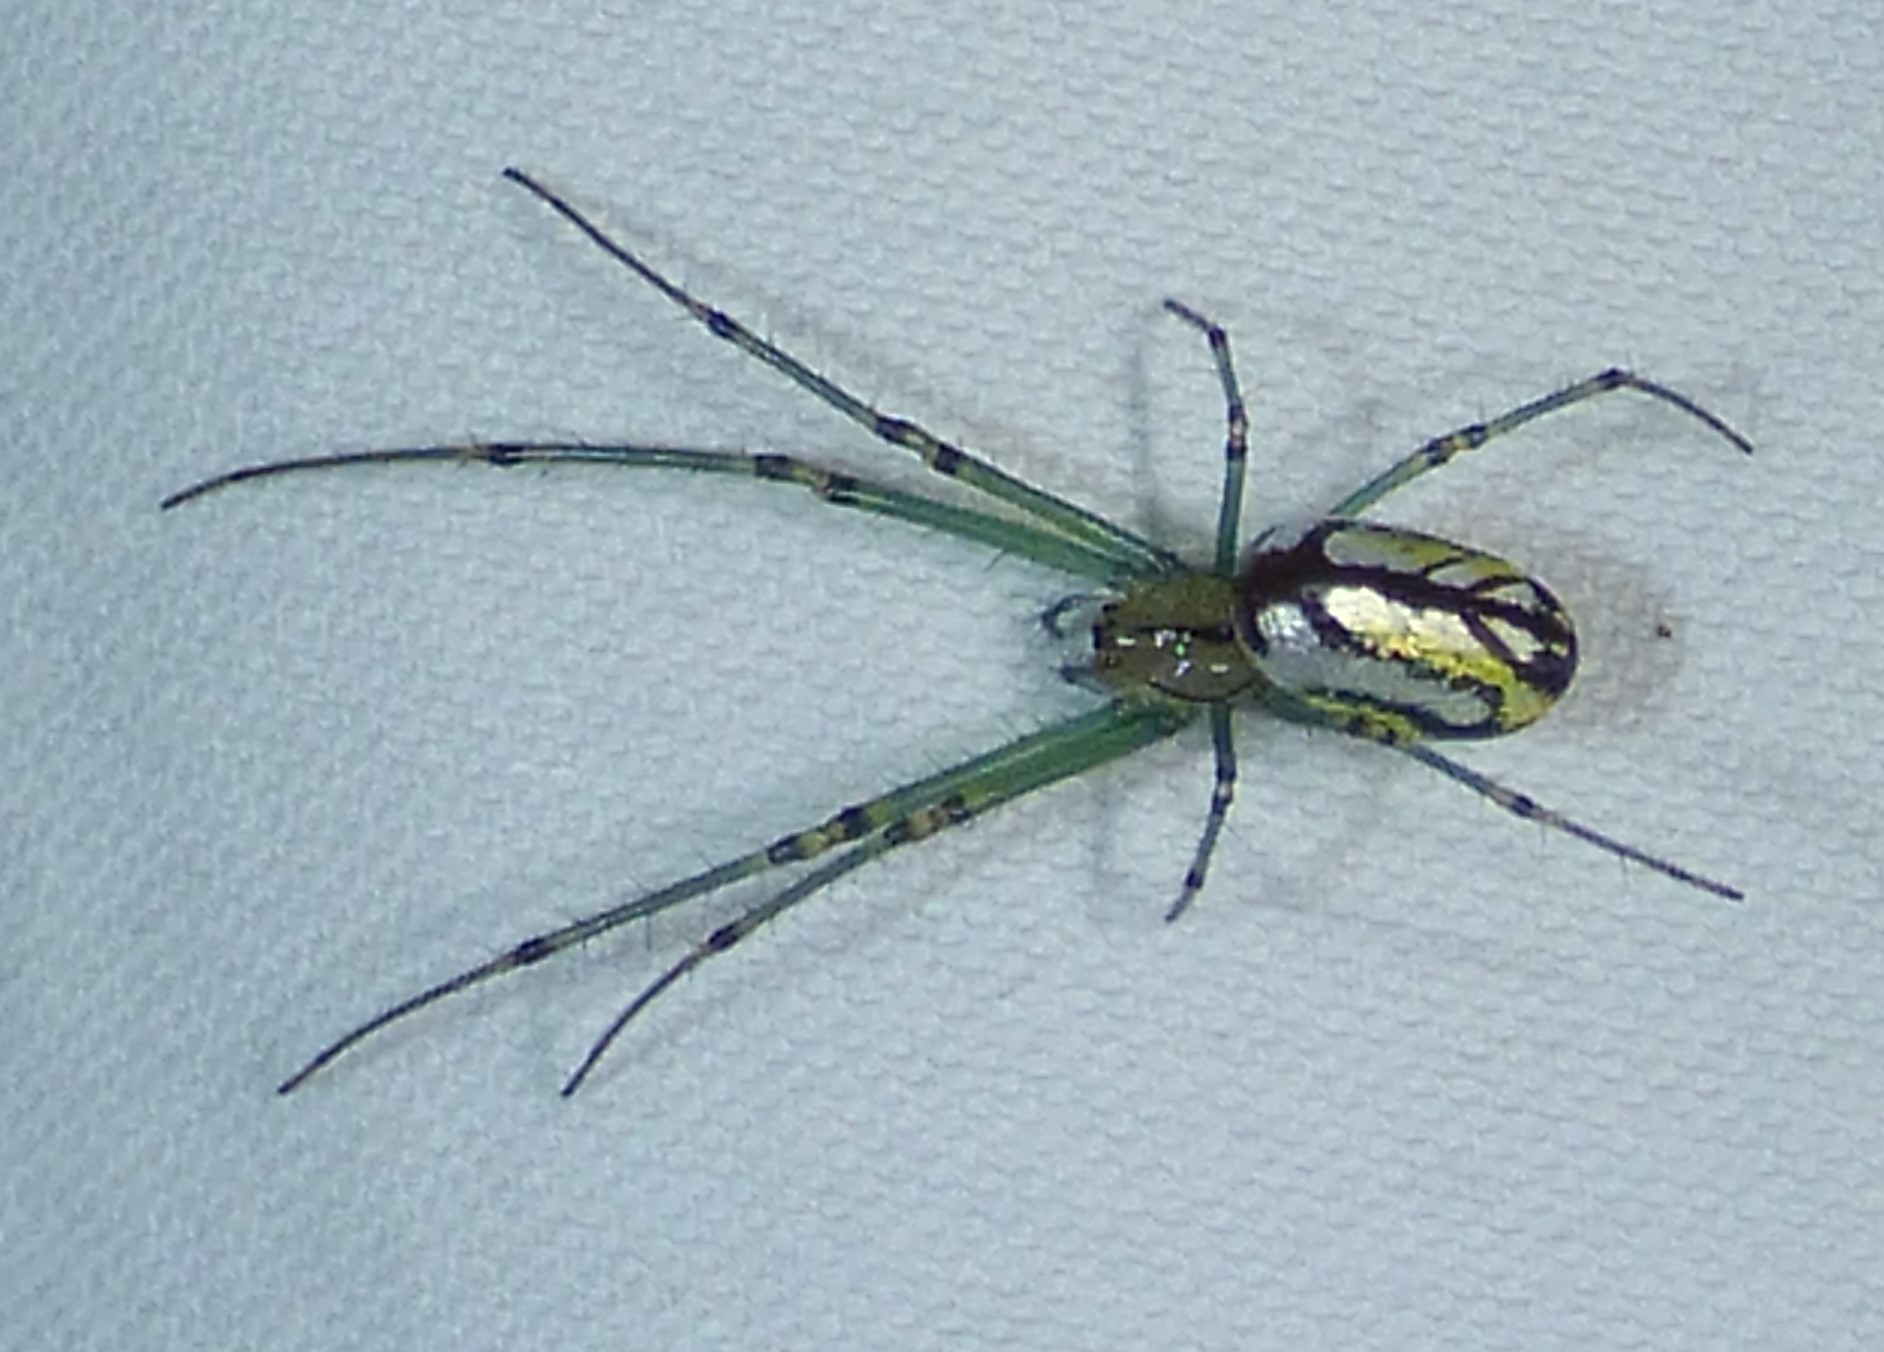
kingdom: Animalia
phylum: Arthropoda
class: Arachnida
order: Araneae
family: Tetragnathidae
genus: Leucauge
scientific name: Leucauge venusta
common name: Longjawed orb weavers
